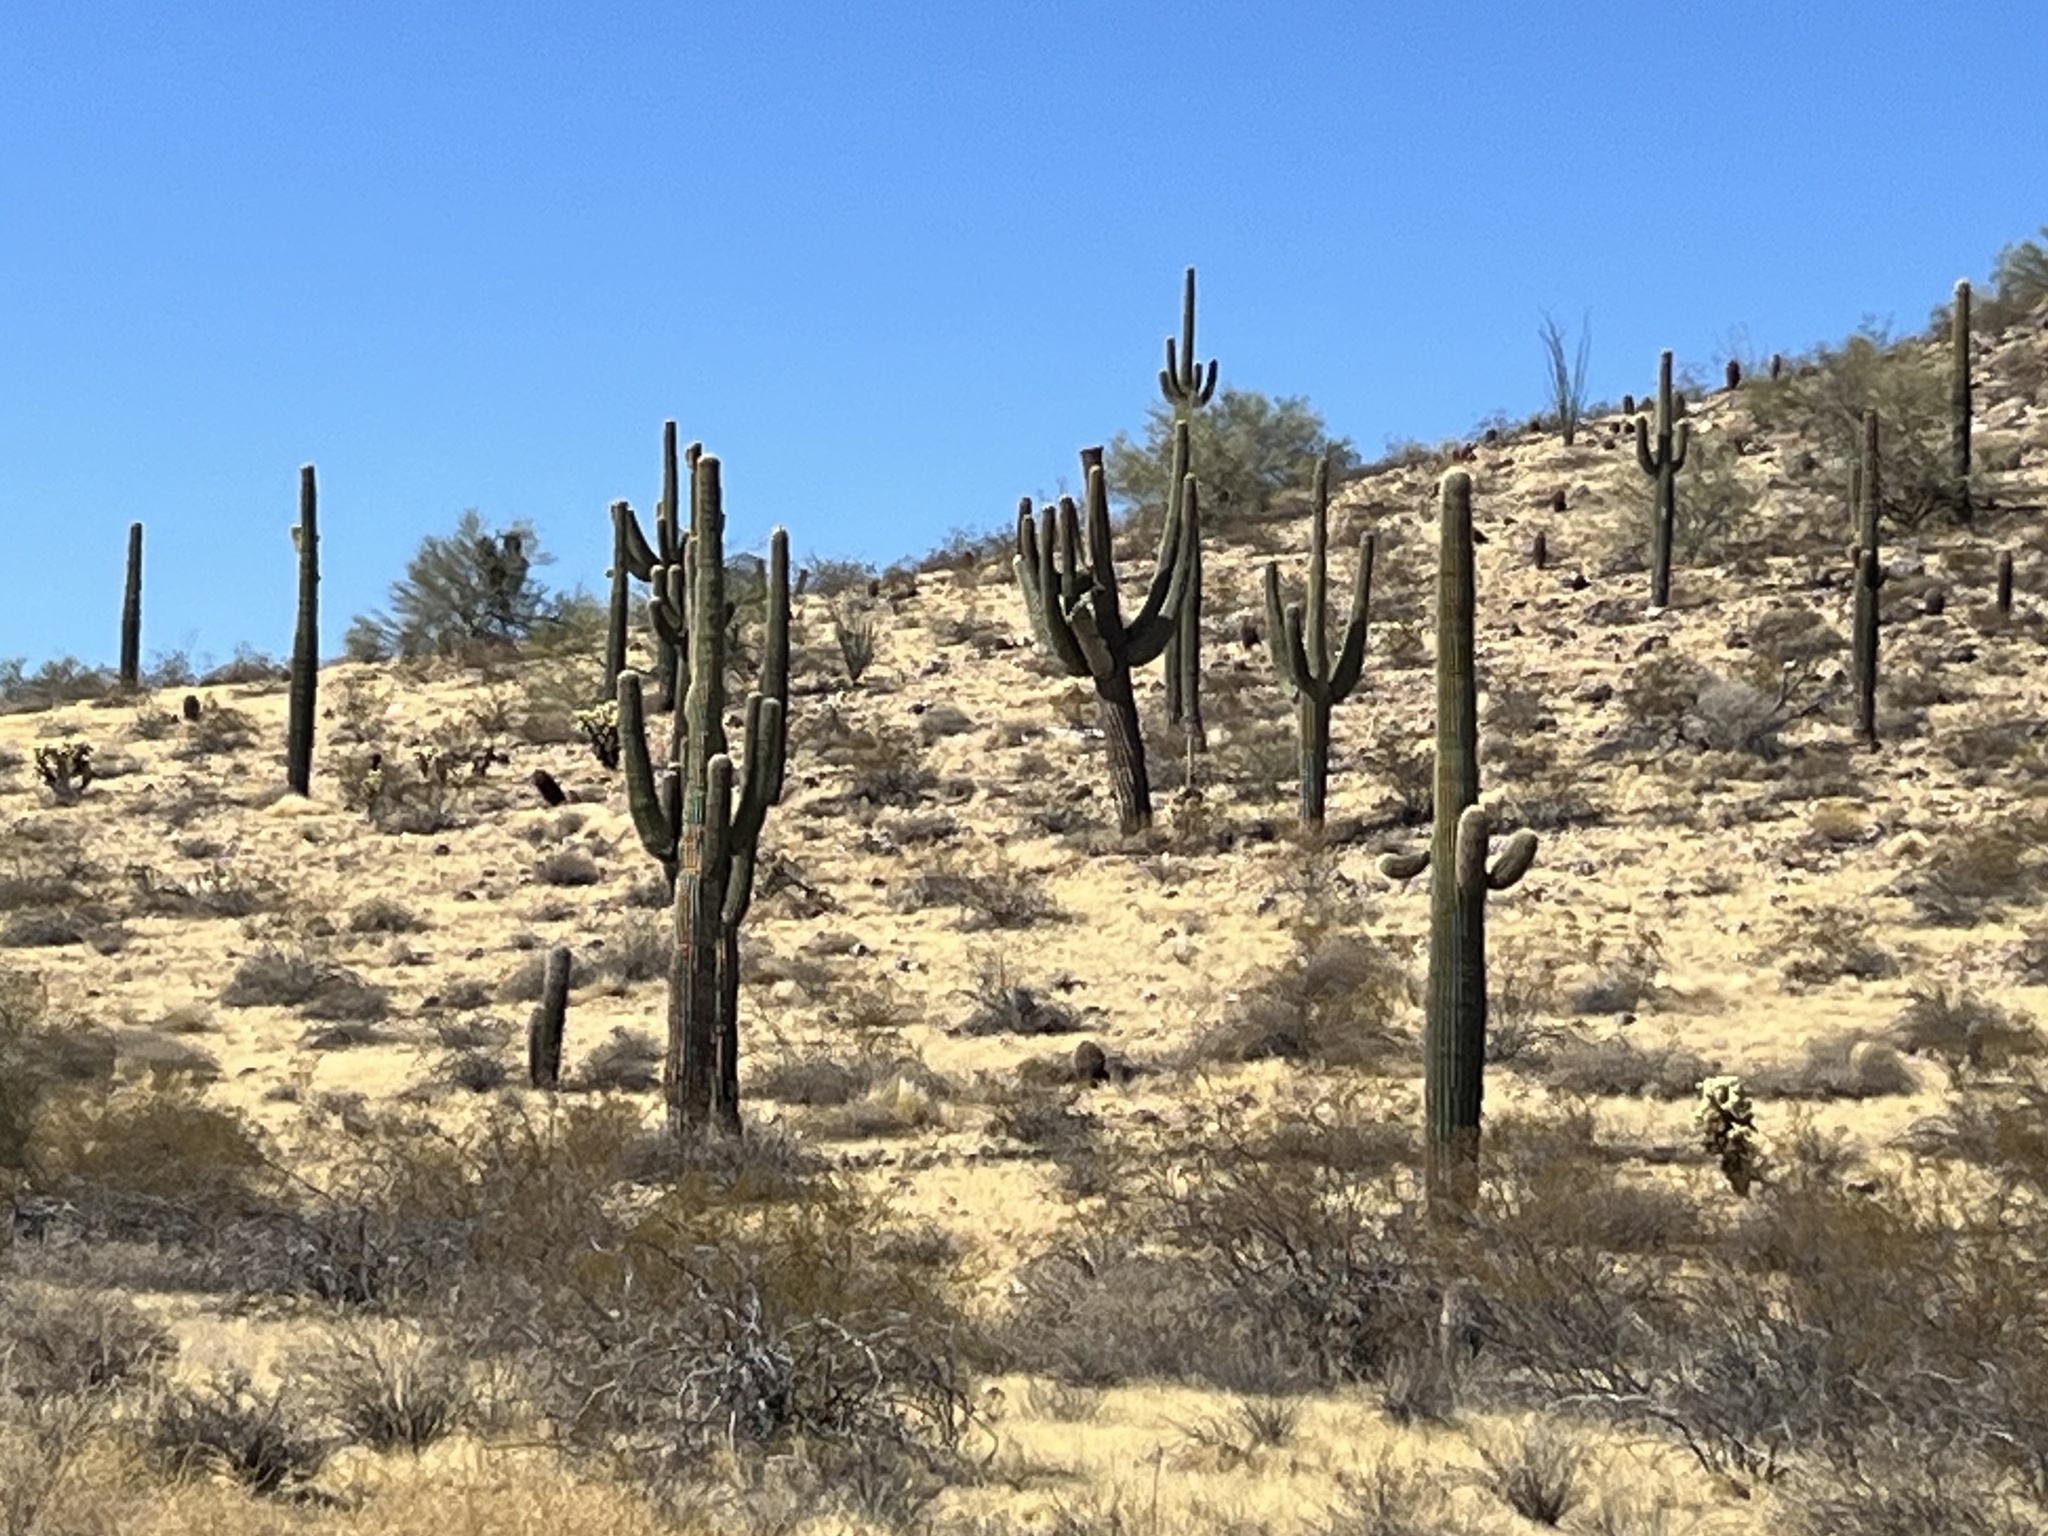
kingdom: Plantae
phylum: Tracheophyta
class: Magnoliopsida
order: Caryophyllales
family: Cactaceae
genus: Carnegiea
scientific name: Carnegiea gigantea
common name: Saguaro
